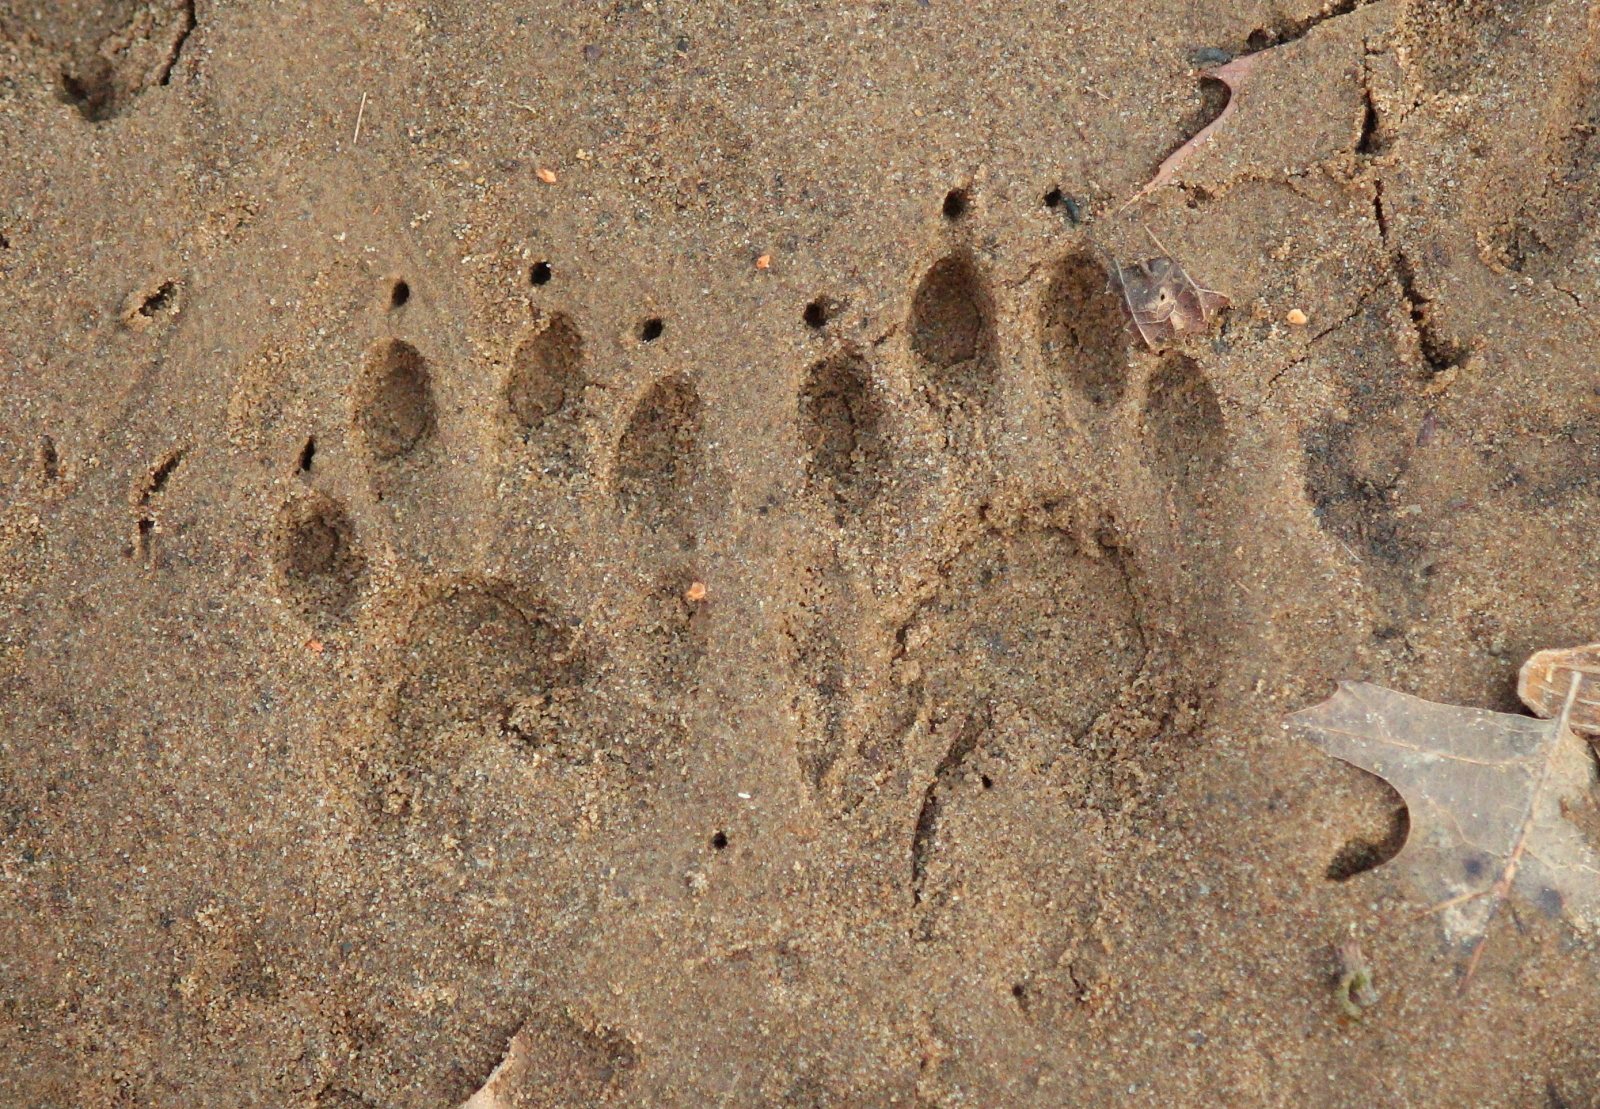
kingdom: Animalia
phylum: Chordata
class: Mammalia
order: Carnivora
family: Procyonidae
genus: Procyon
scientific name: Procyon lotor
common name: Raccoon
